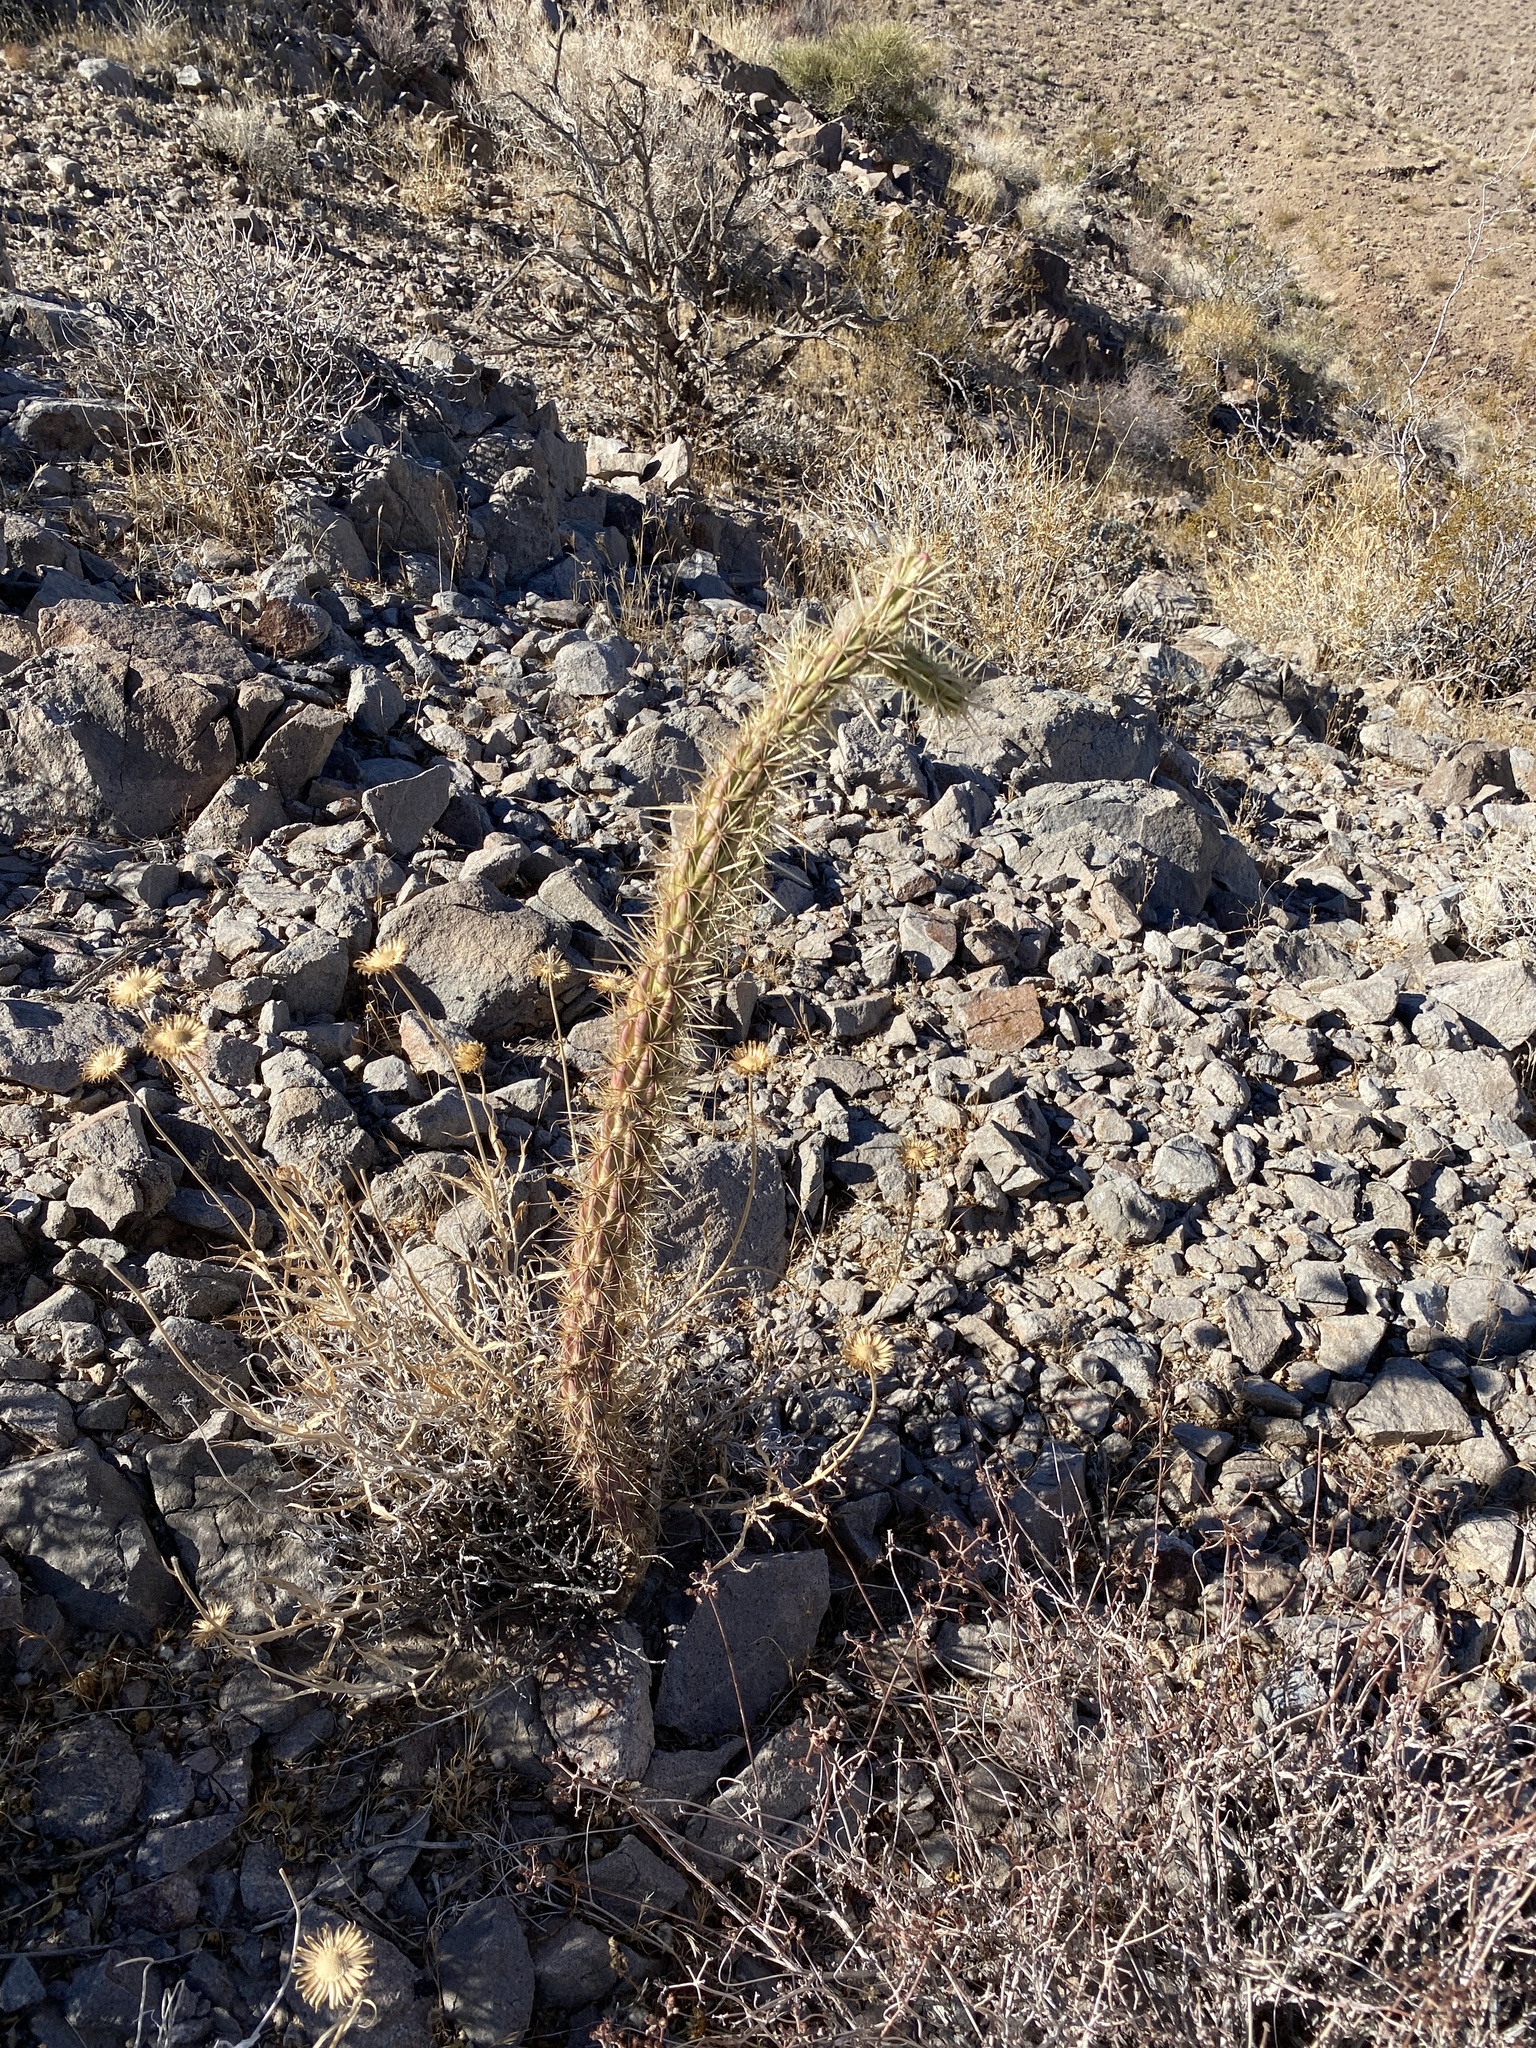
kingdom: Plantae
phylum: Tracheophyta
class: Magnoliopsida
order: Caryophyllales
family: Cactaceae
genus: Cylindropuntia
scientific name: Cylindropuntia acanthocarpa
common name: Buckhorn cholla
